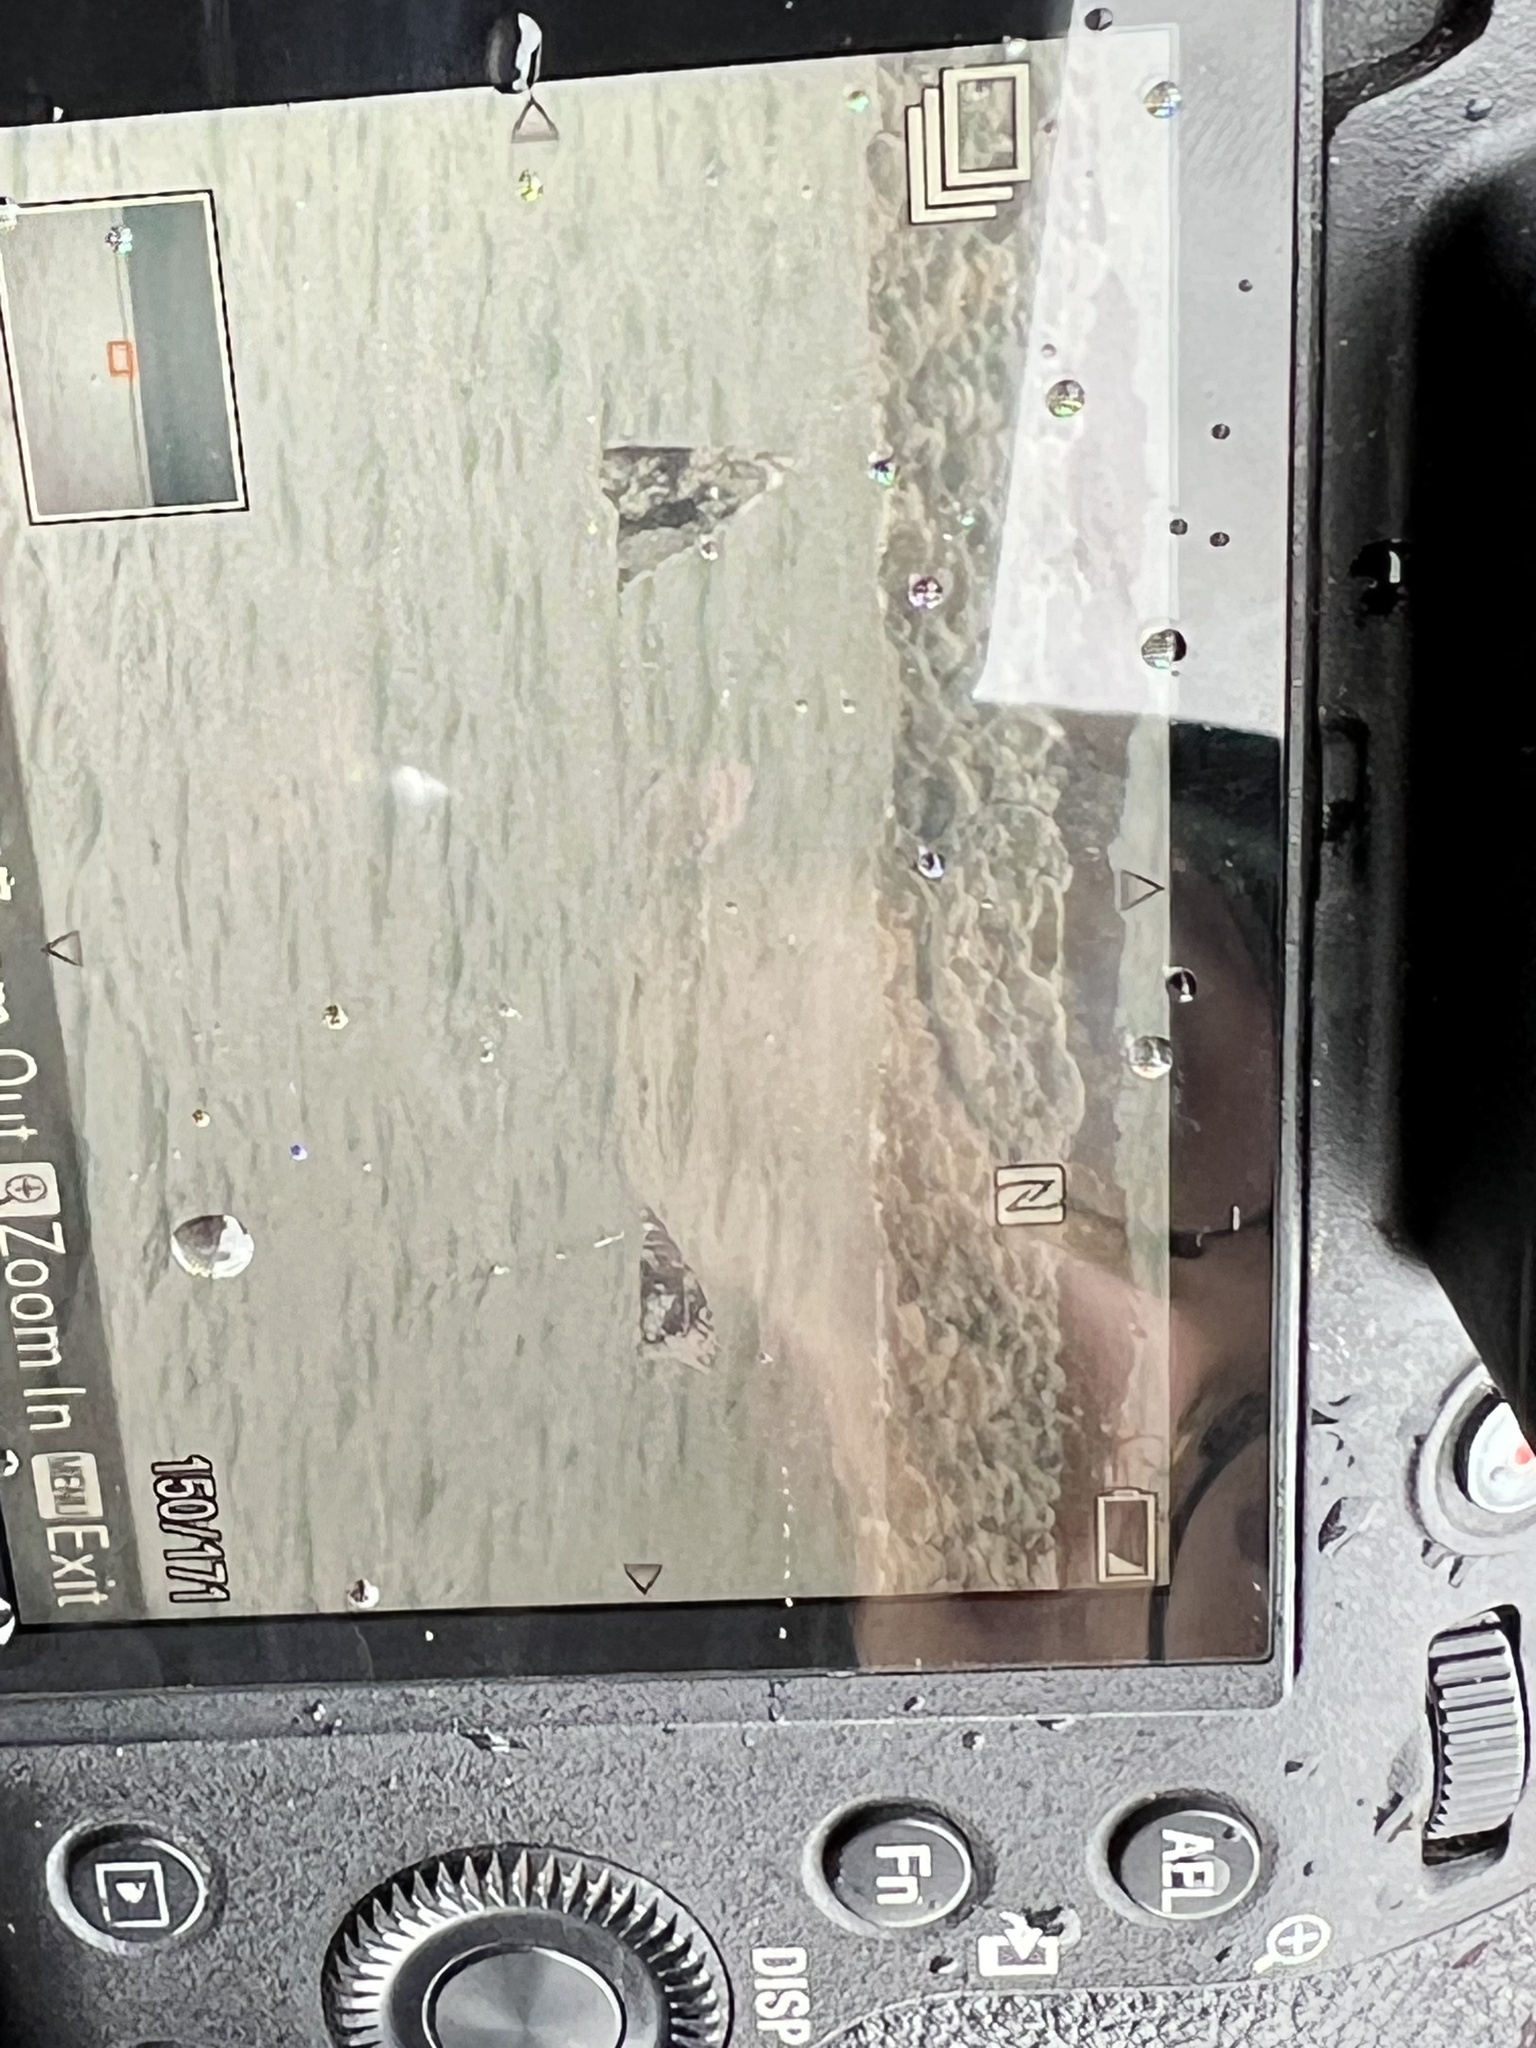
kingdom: Animalia
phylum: Chordata
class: Mammalia
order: Cetacea
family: Eschrichtiidae
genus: Eschrichtius
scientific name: Eschrichtius robustus
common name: Gray whale
